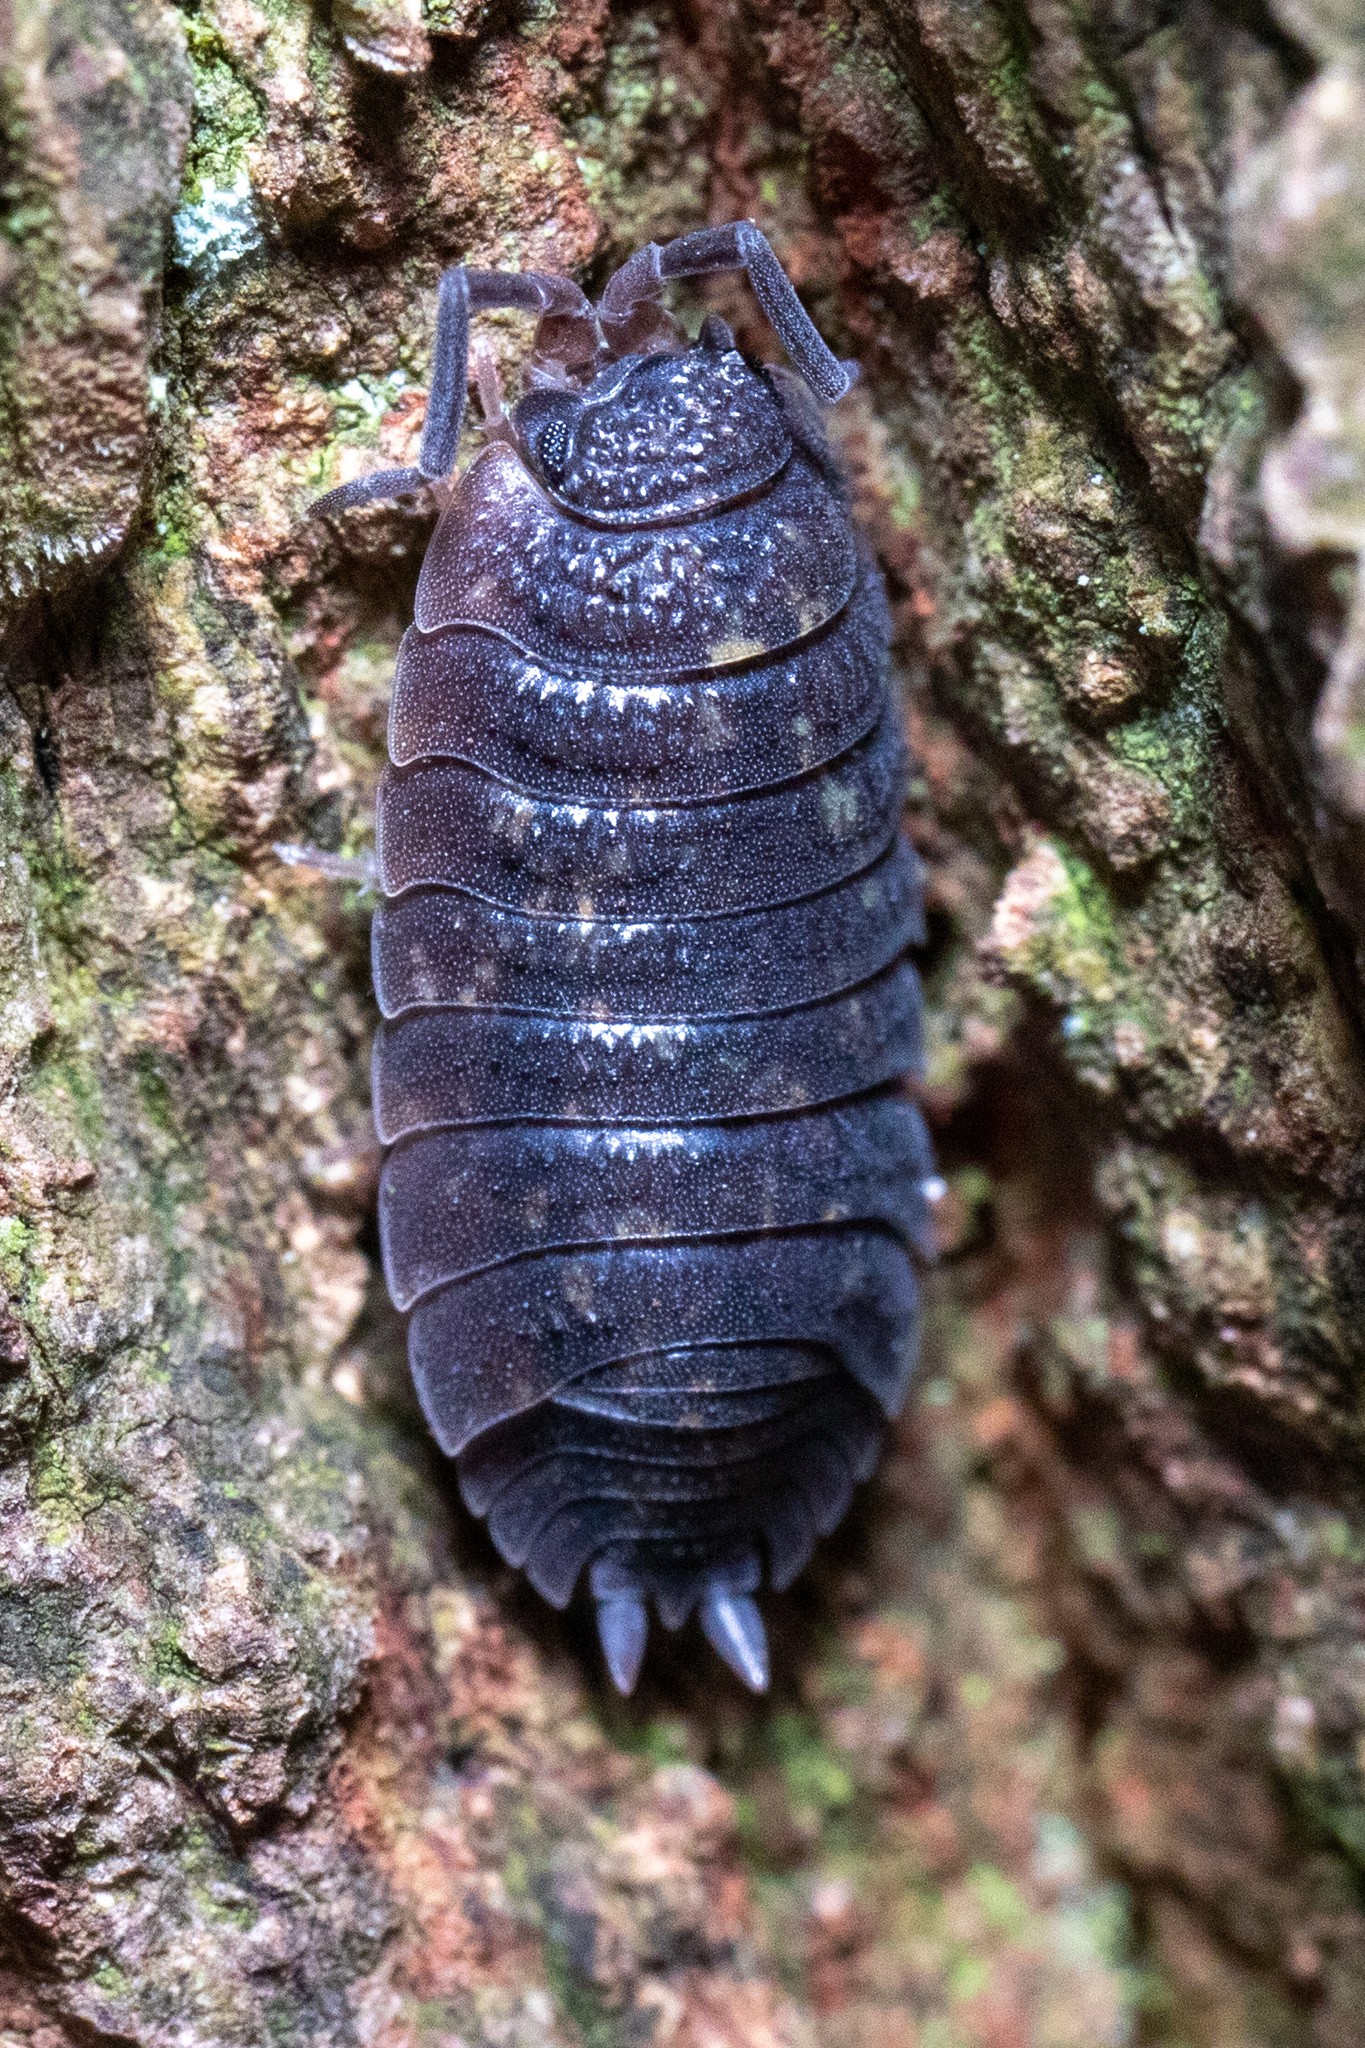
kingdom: Animalia
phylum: Arthropoda
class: Malacostraca
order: Isopoda
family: Porcellionidae
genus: Porcellio
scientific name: Porcellio scaber
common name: Common rough woodlouse
